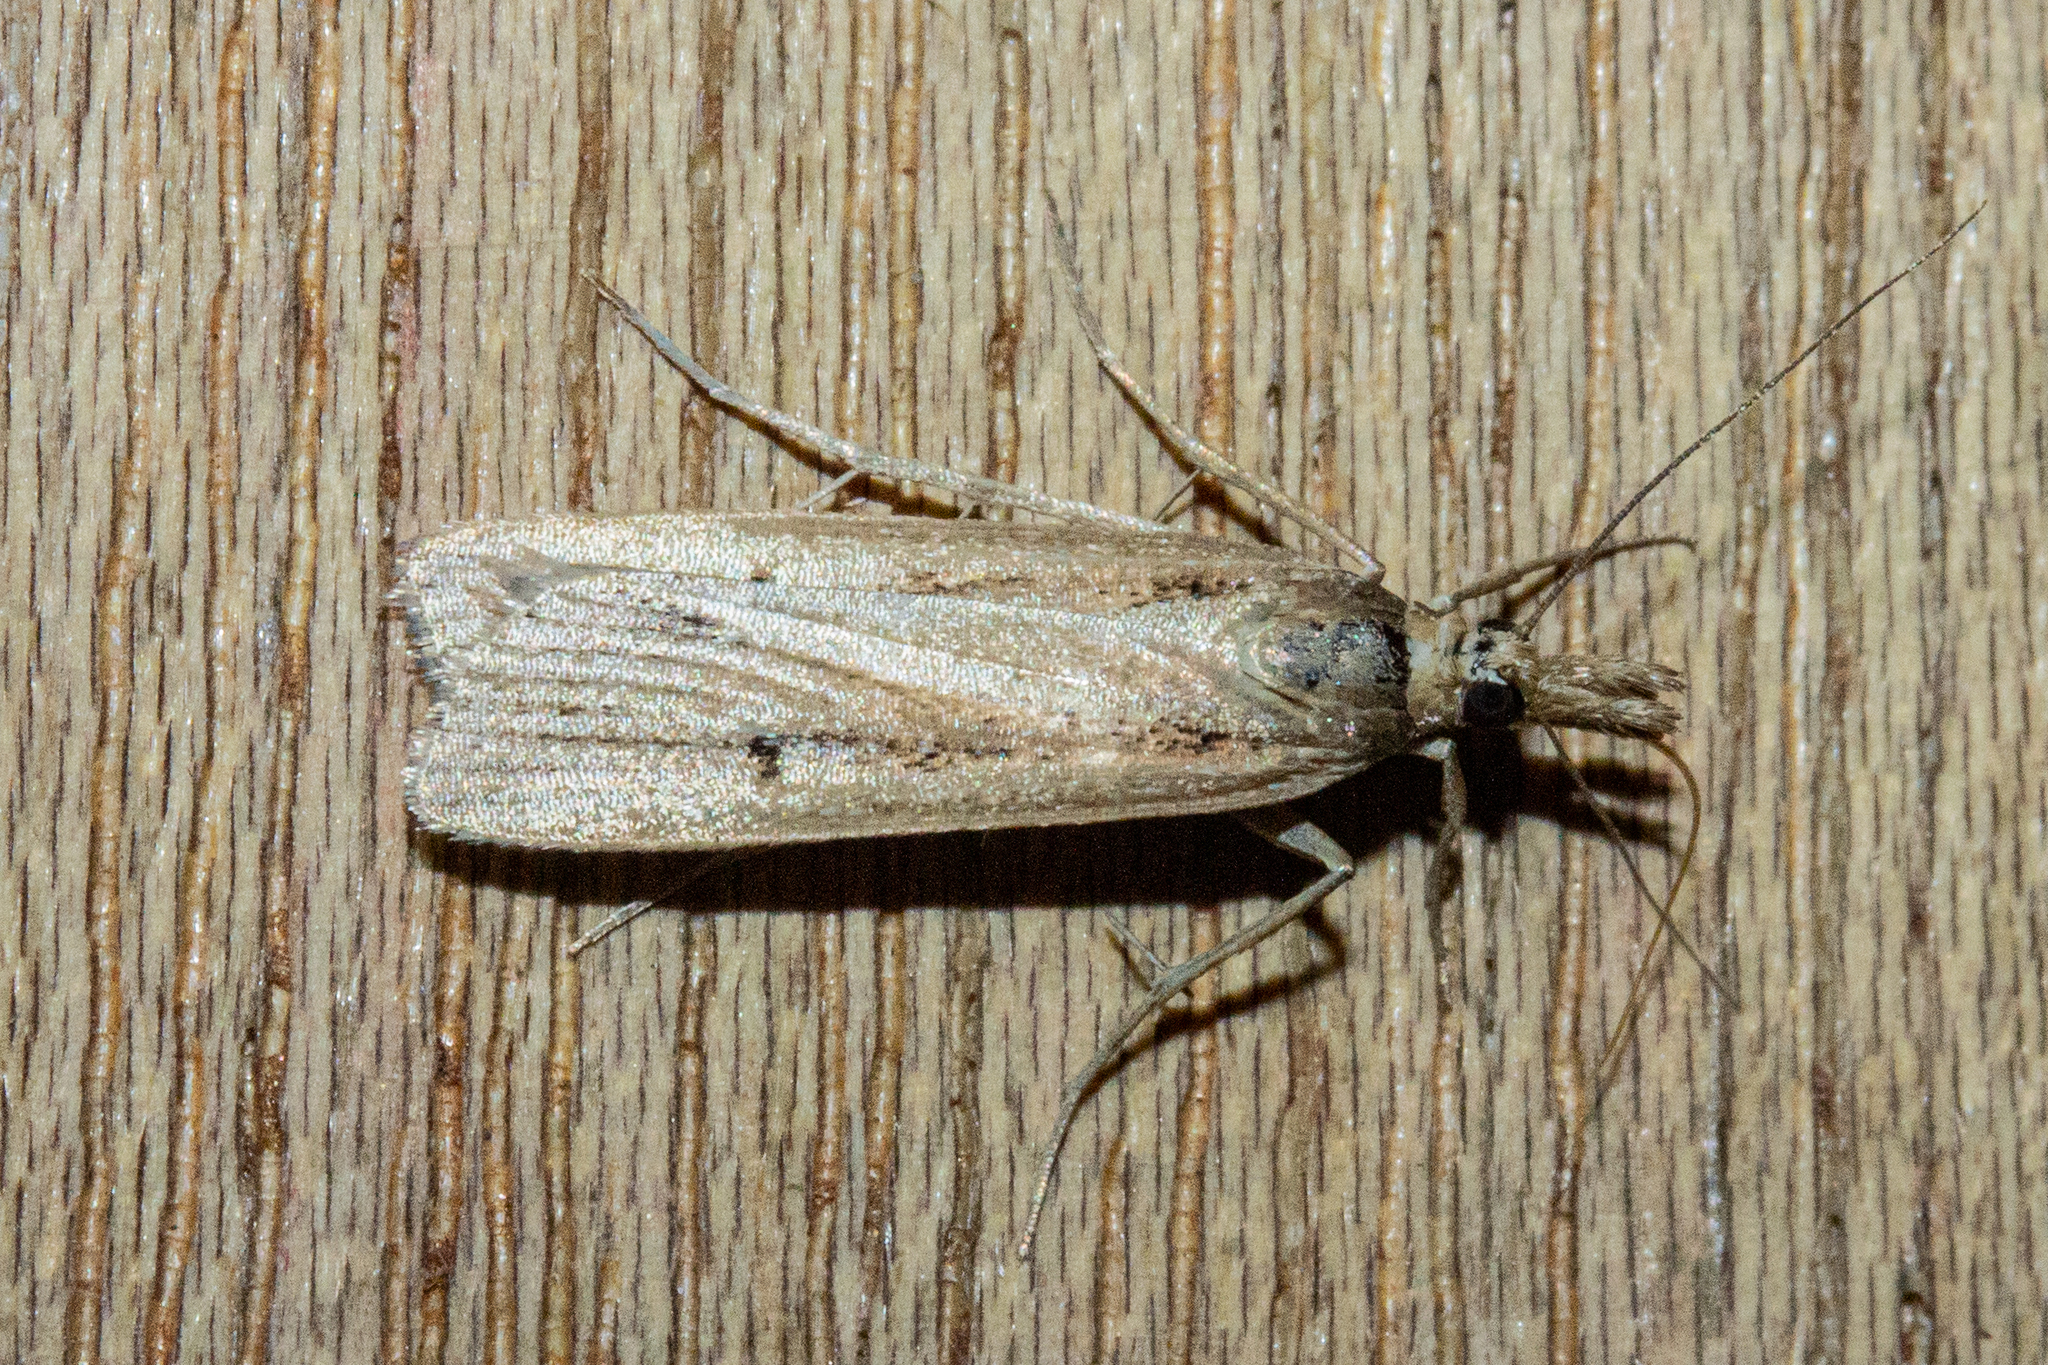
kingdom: Animalia
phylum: Arthropoda
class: Insecta
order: Lepidoptera
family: Crambidae
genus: Eudonia
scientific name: Eudonia sabulosella
